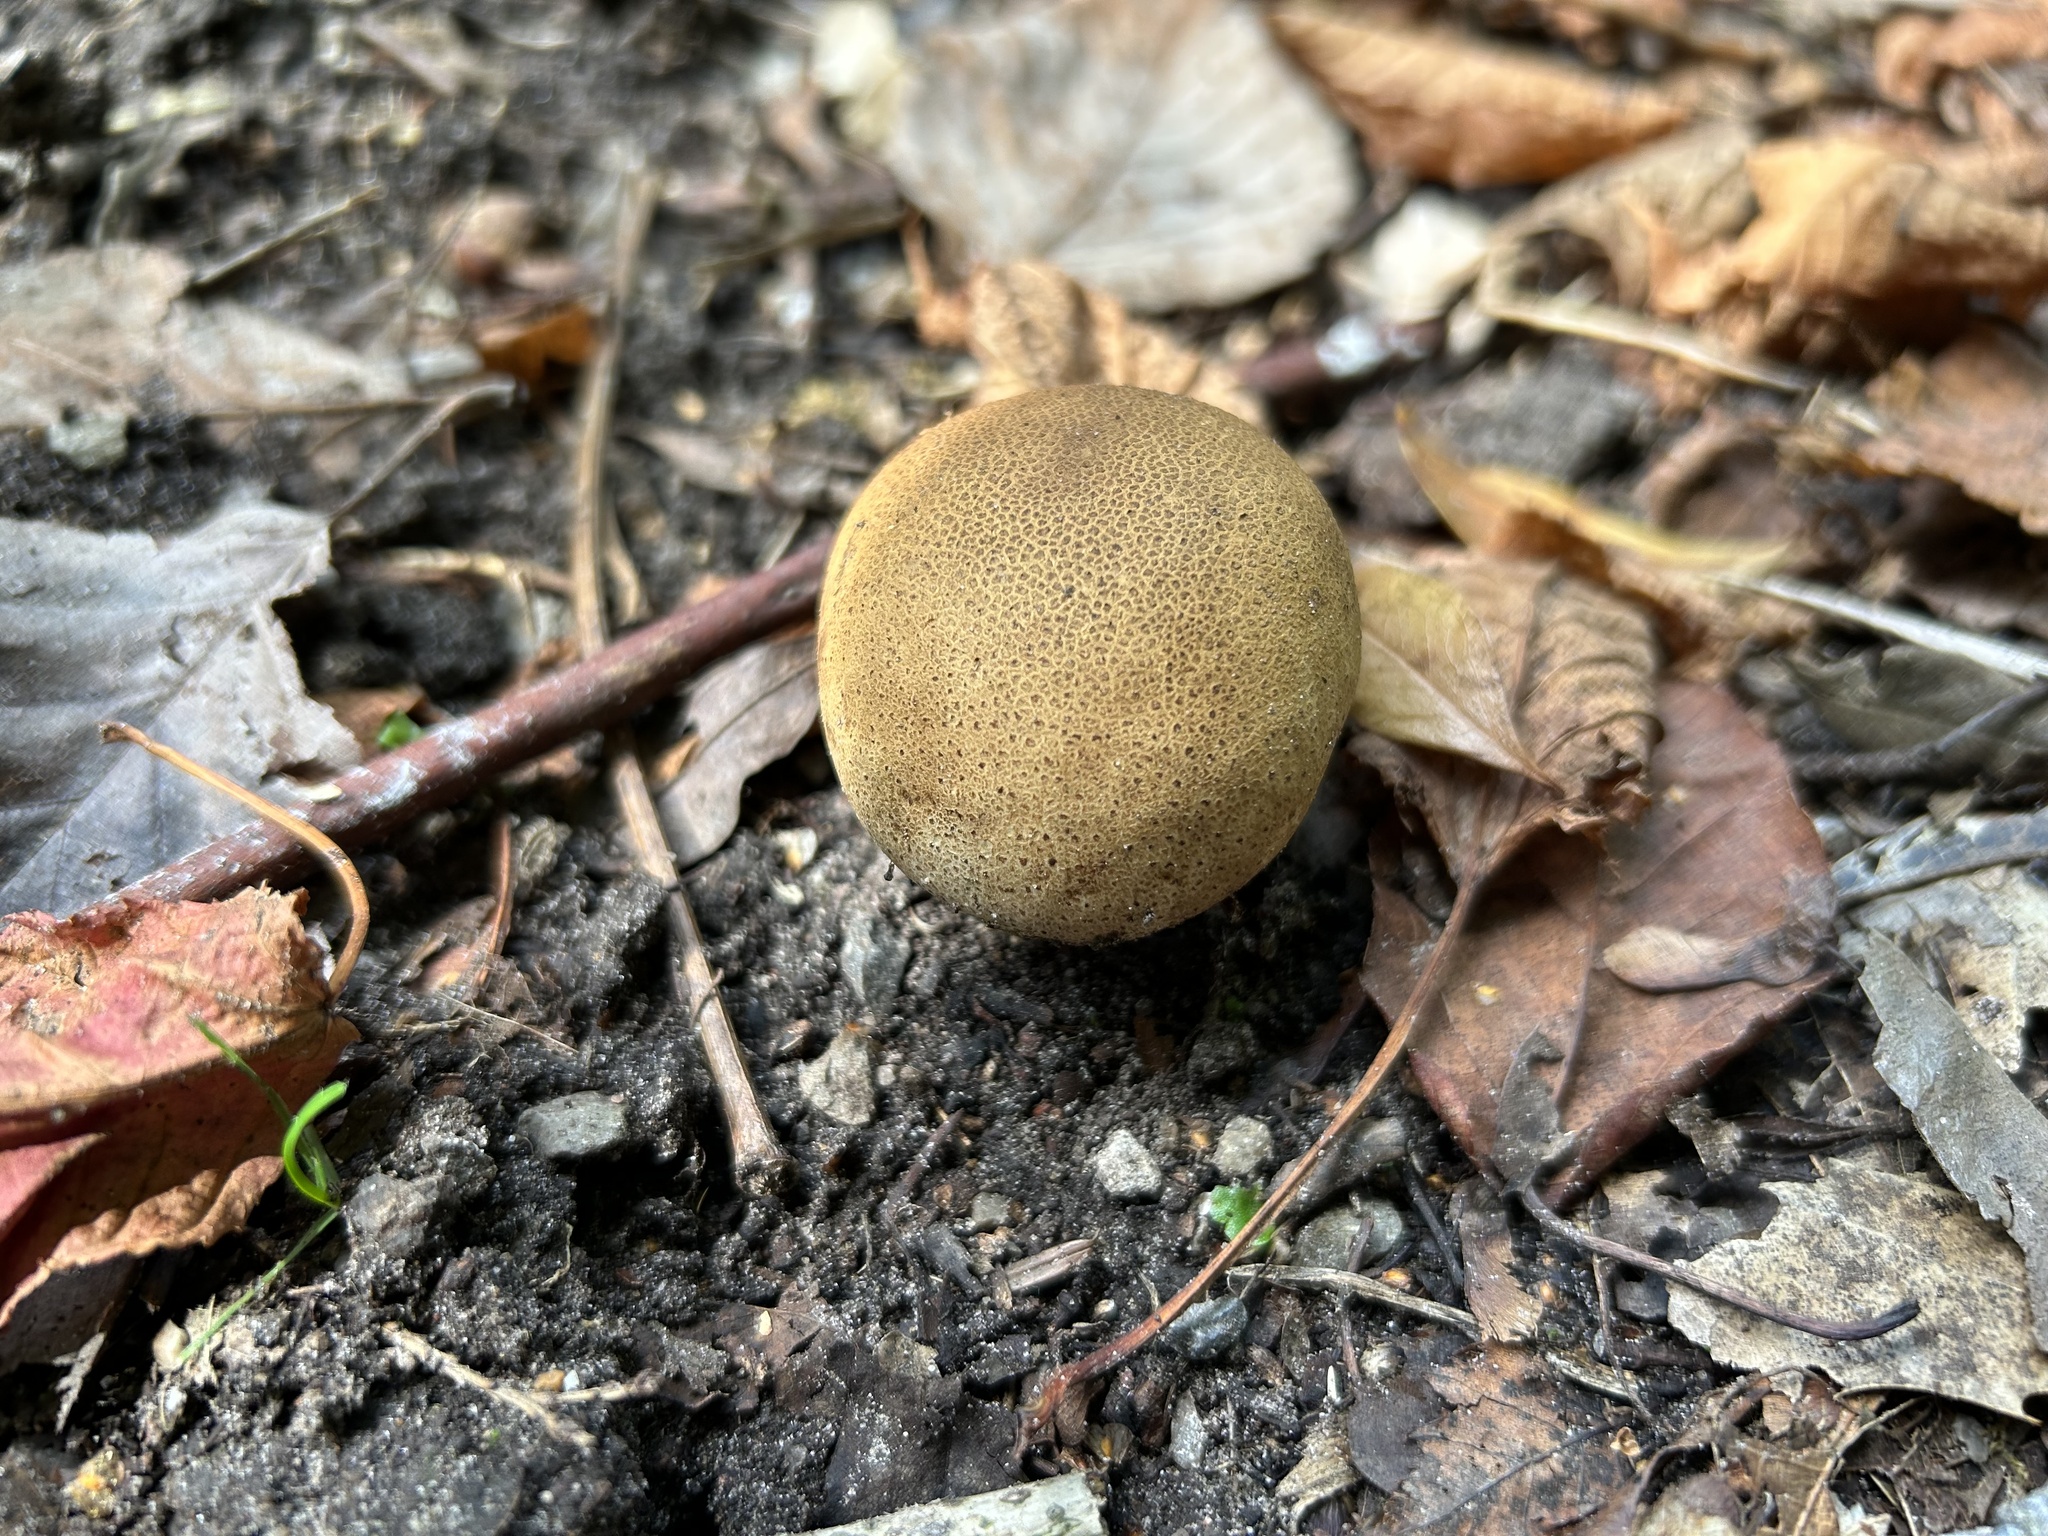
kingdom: Fungi
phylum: Basidiomycota
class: Agaricomycetes
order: Boletales
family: Sclerodermataceae
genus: Scleroderma
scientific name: Scleroderma verrucosum
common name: Scaly earthball
